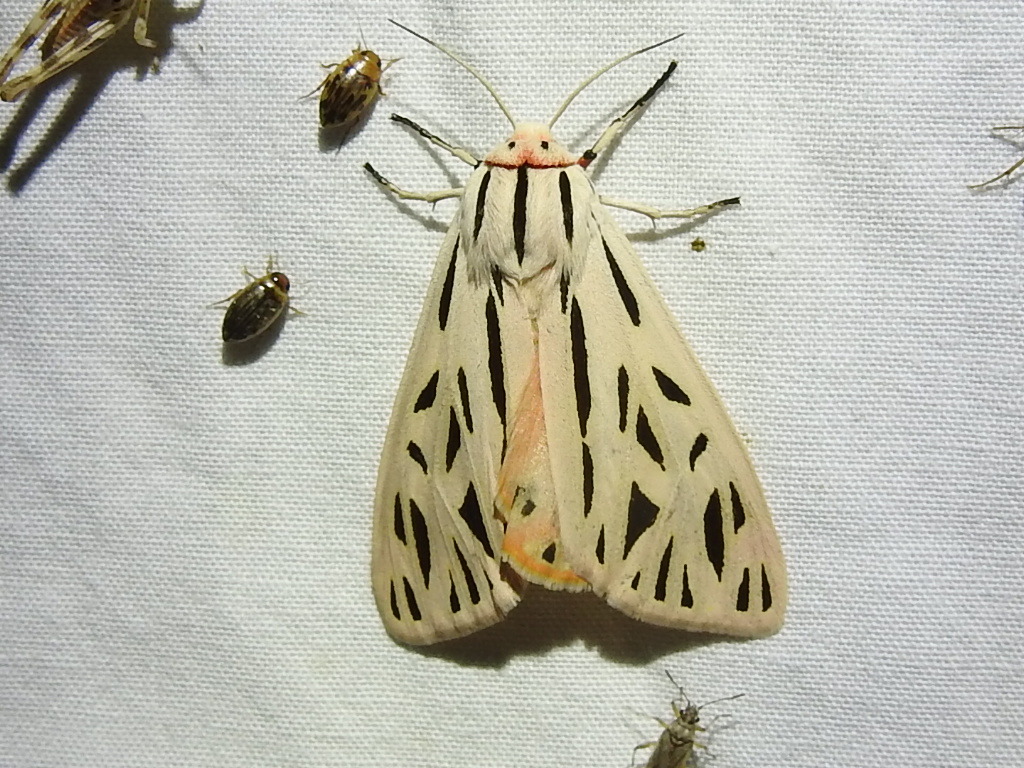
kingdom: Animalia
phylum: Arthropoda
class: Insecta
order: Lepidoptera
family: Erebidae
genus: Apantesis
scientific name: Apantesis arge
